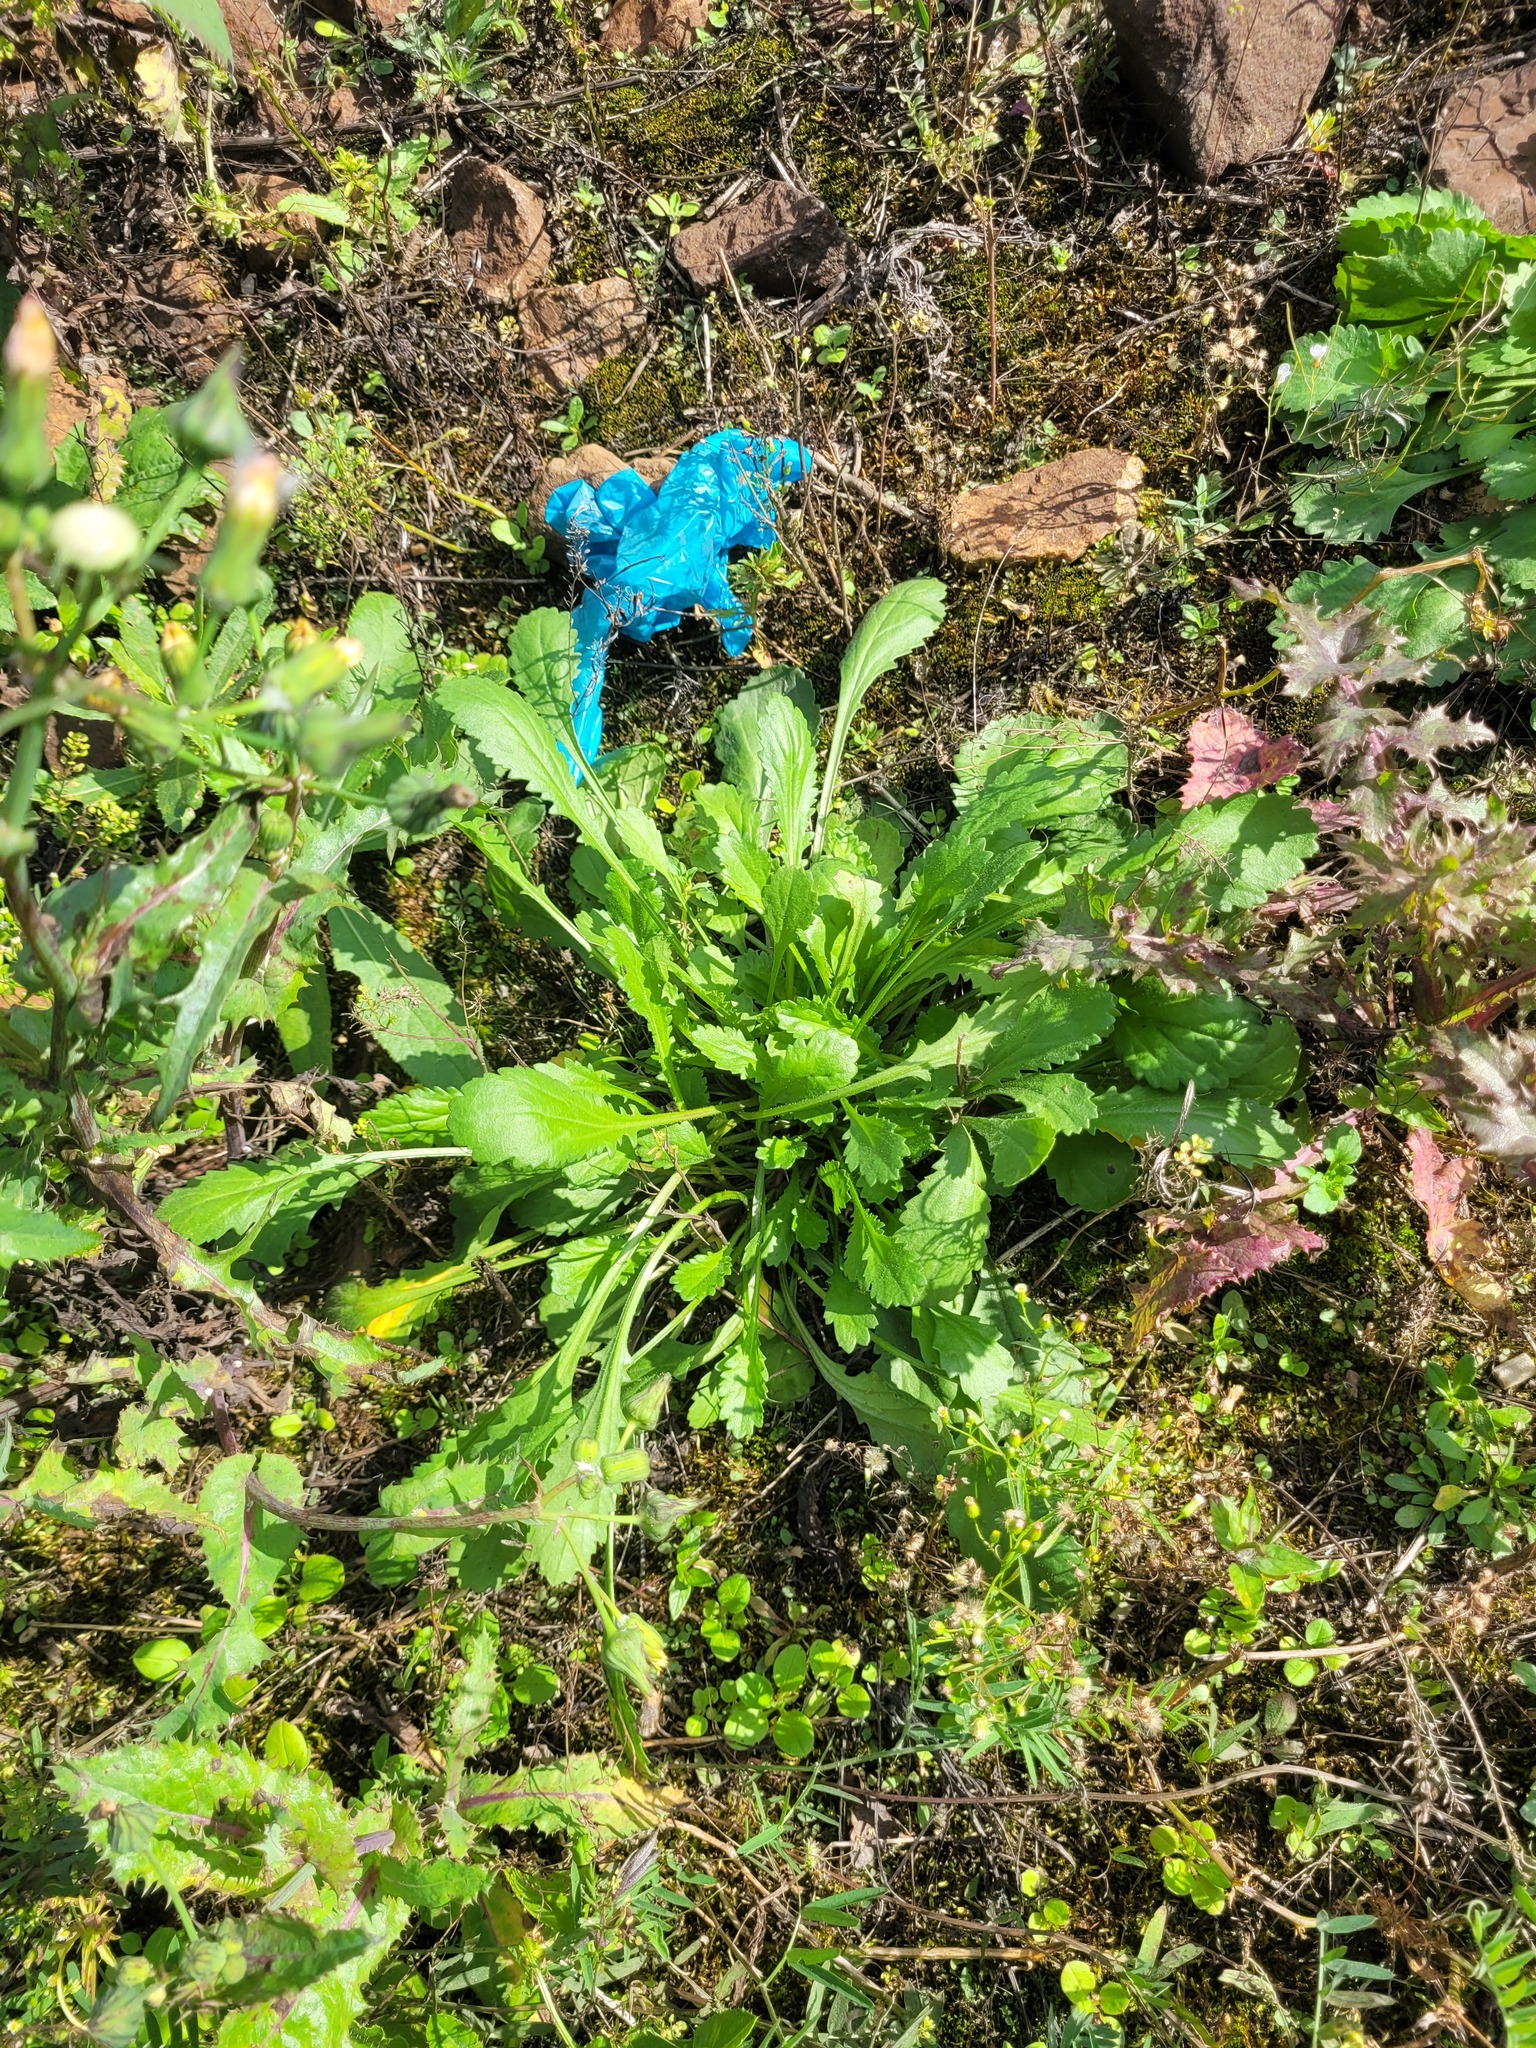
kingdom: Plantae
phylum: Tracheophyta
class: Magnoliopsida
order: Asterales
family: Asteraceae
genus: Leucanthemum
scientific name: Leucanthemum vulgare
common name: Oxeye daisy
